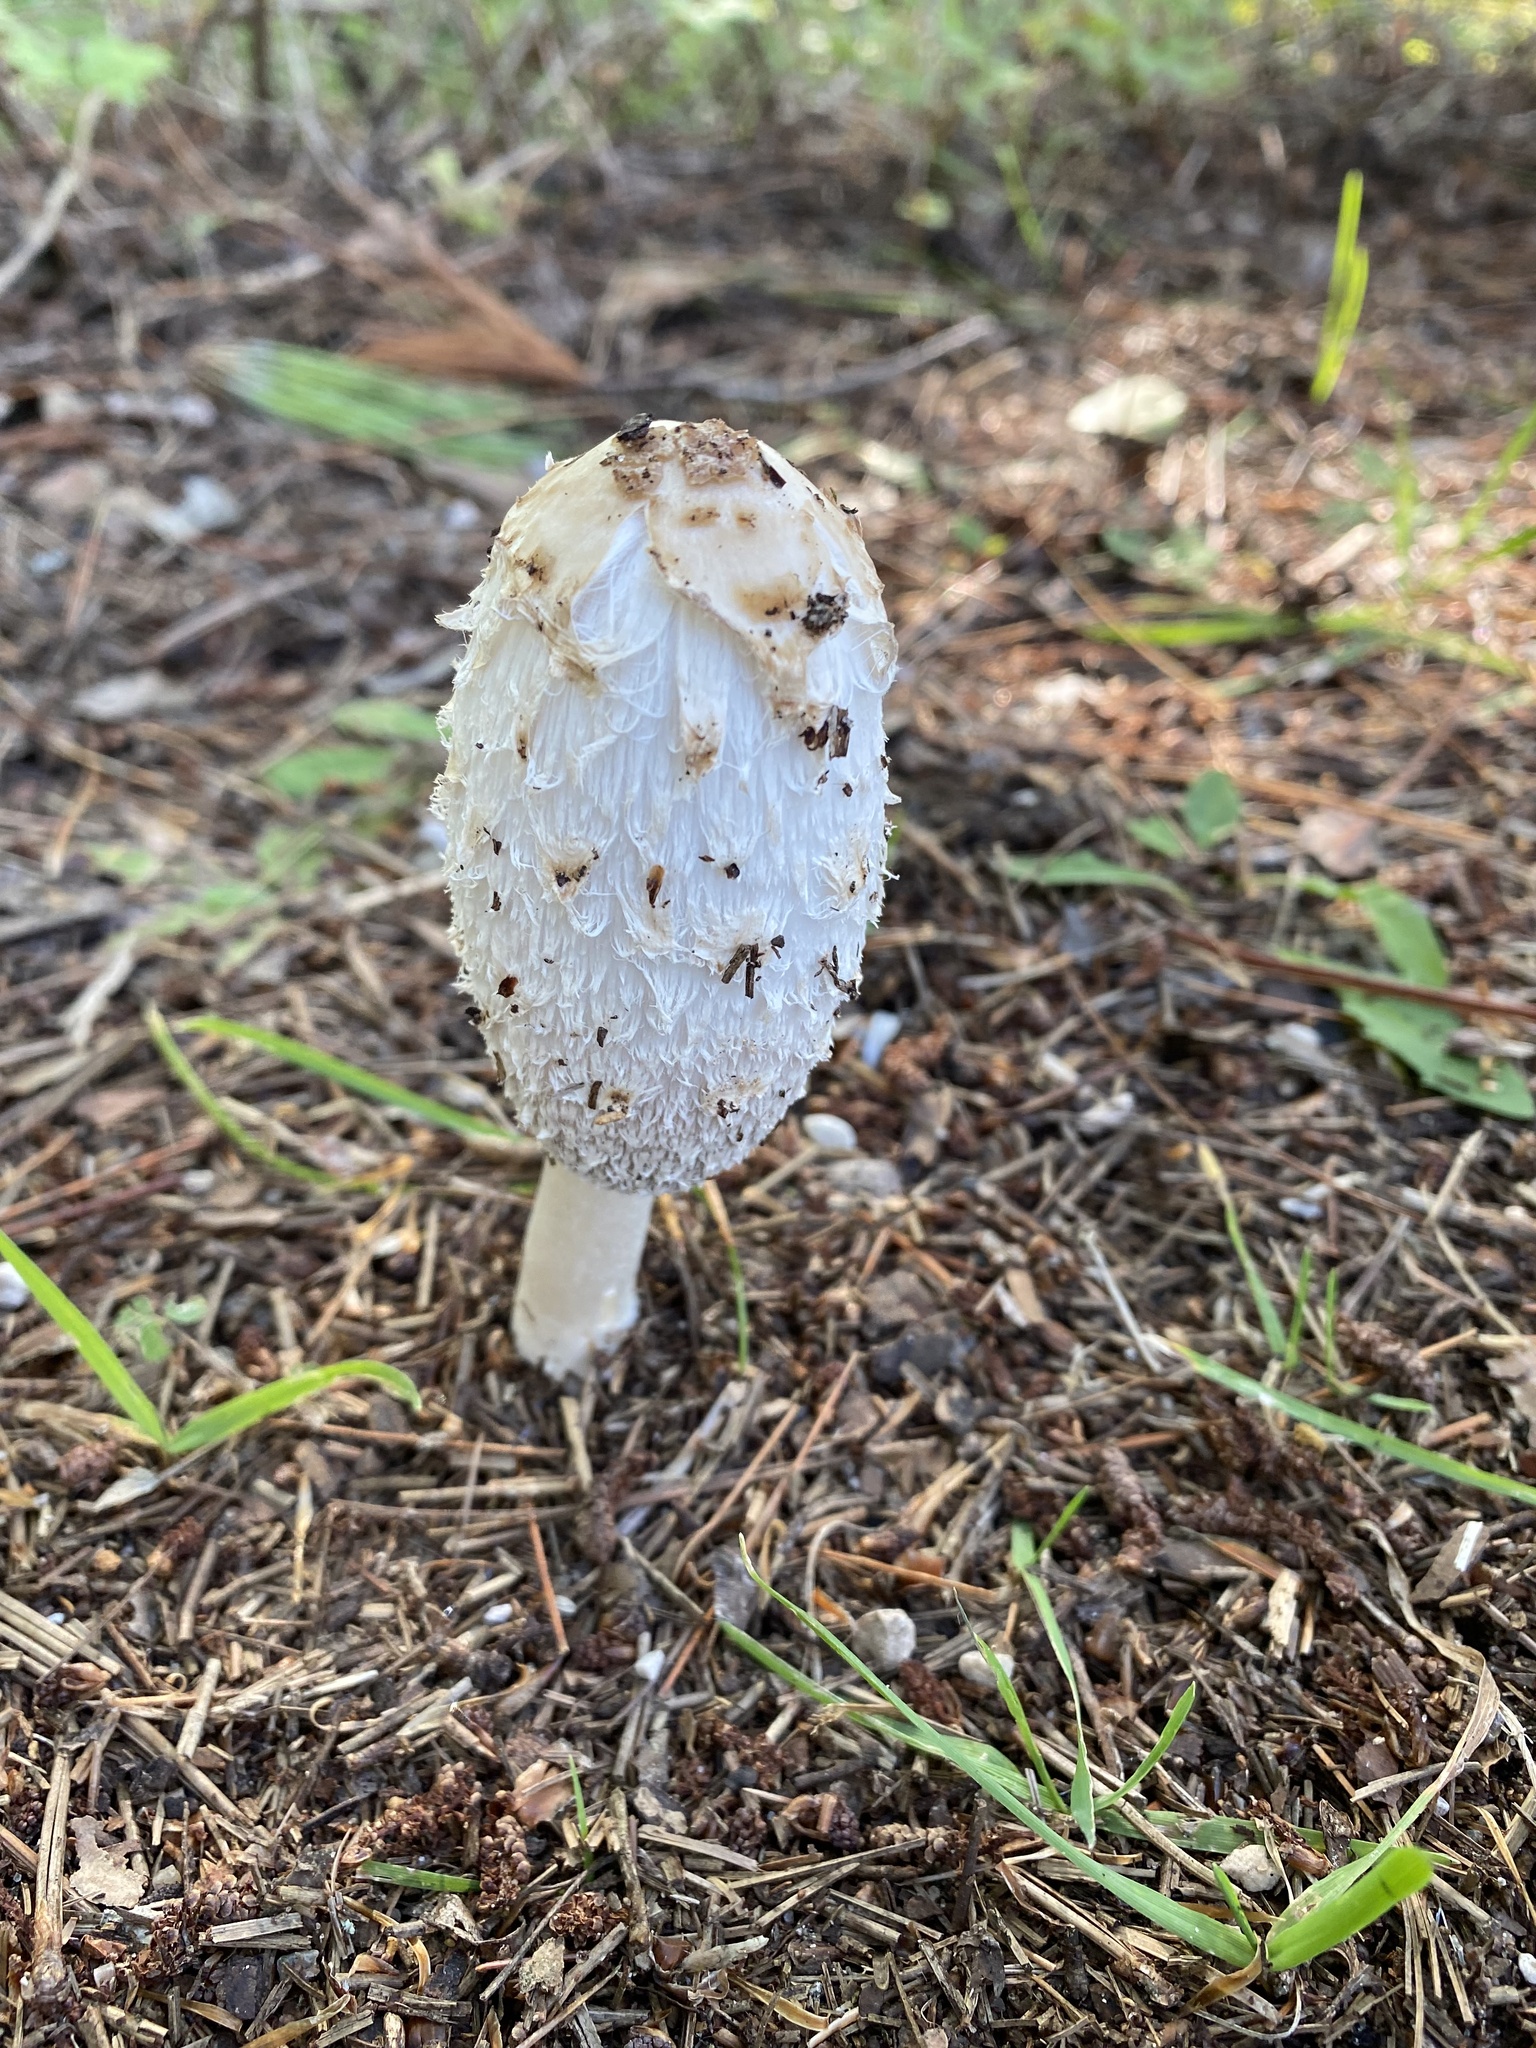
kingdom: Fungi
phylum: Basidiomycota
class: Agaricomycetes
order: Agaricales
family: Agaricaceae
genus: Coprinus
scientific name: Coprinus comatus
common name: Lawyer's wig
